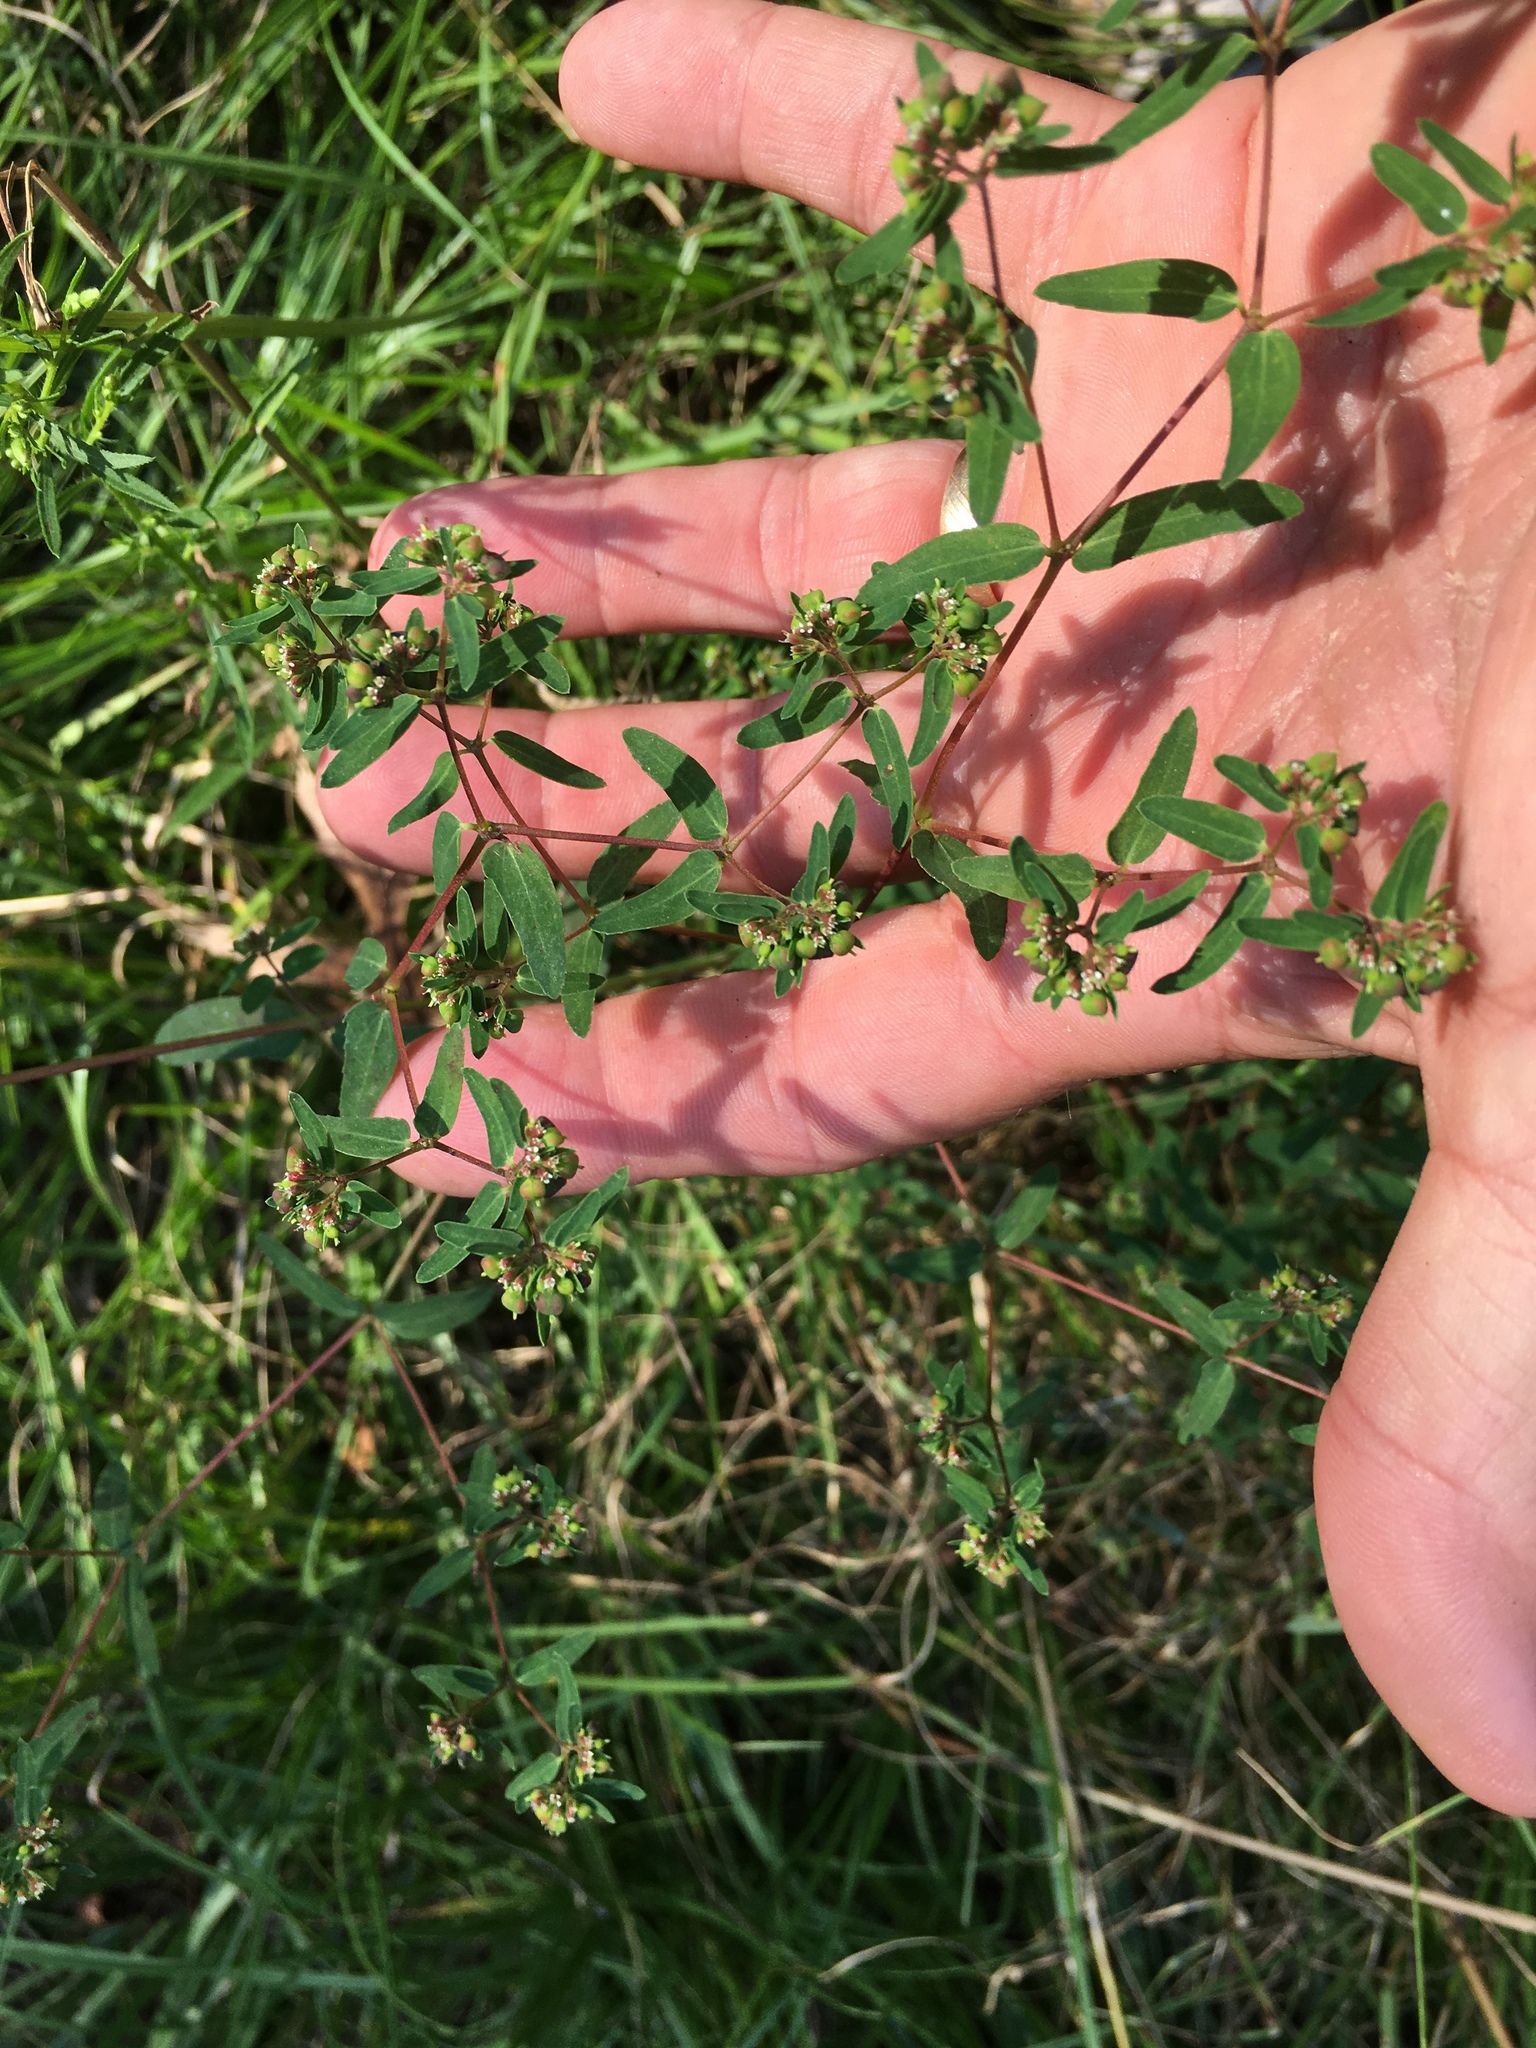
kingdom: Plantae
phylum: Tracheophyta
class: Magnoliopsida
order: Malpighiales
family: Euphorbiaceae
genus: Euphorbia
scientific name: Euphorbia nutans
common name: Eyebane
